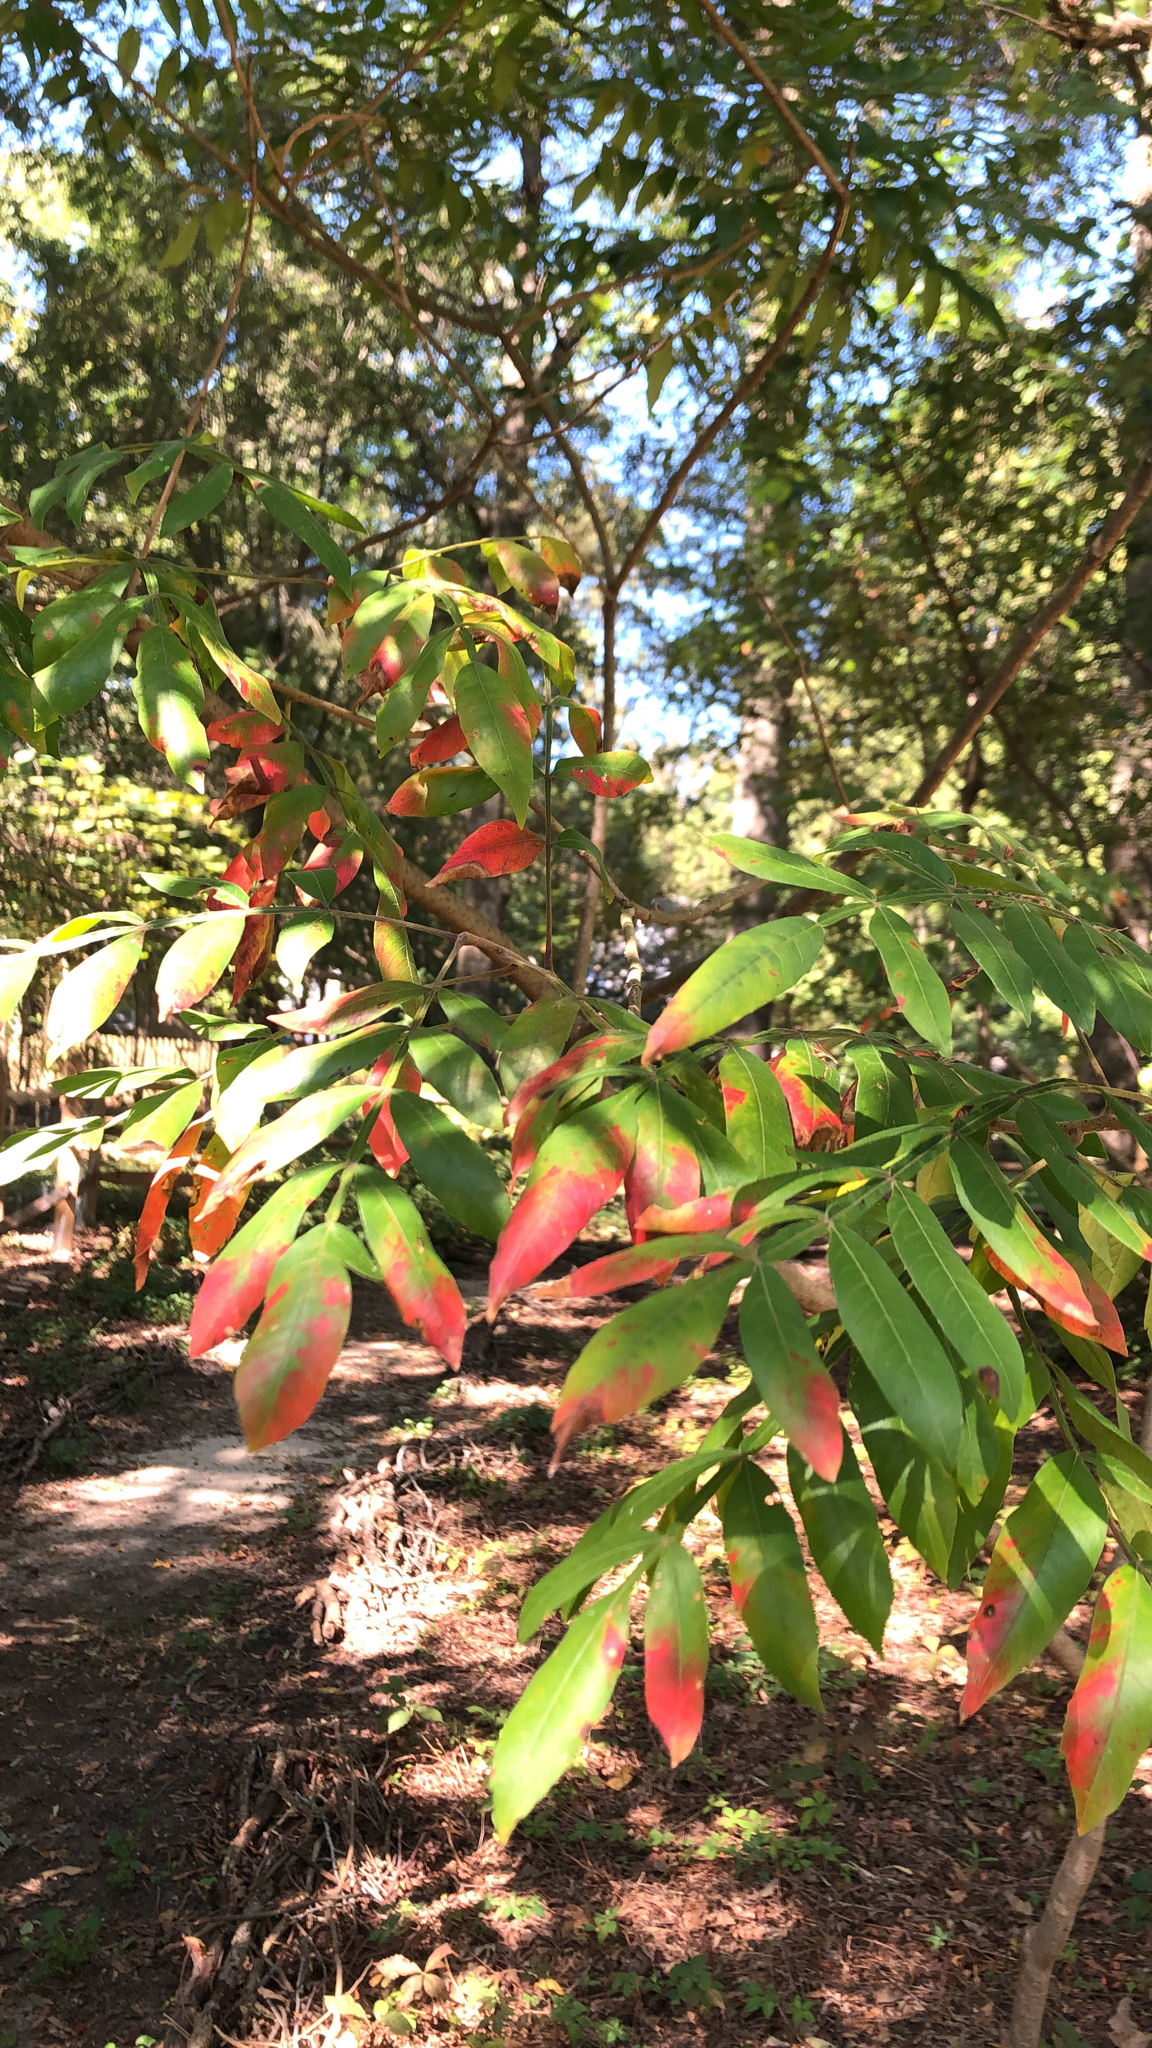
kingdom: Plantae
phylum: Tracheophyta
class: Magnoliopsida
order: Sapindales
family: Anacardiaceae
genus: Rhus
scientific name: Rhus copallina
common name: Shining sumac
